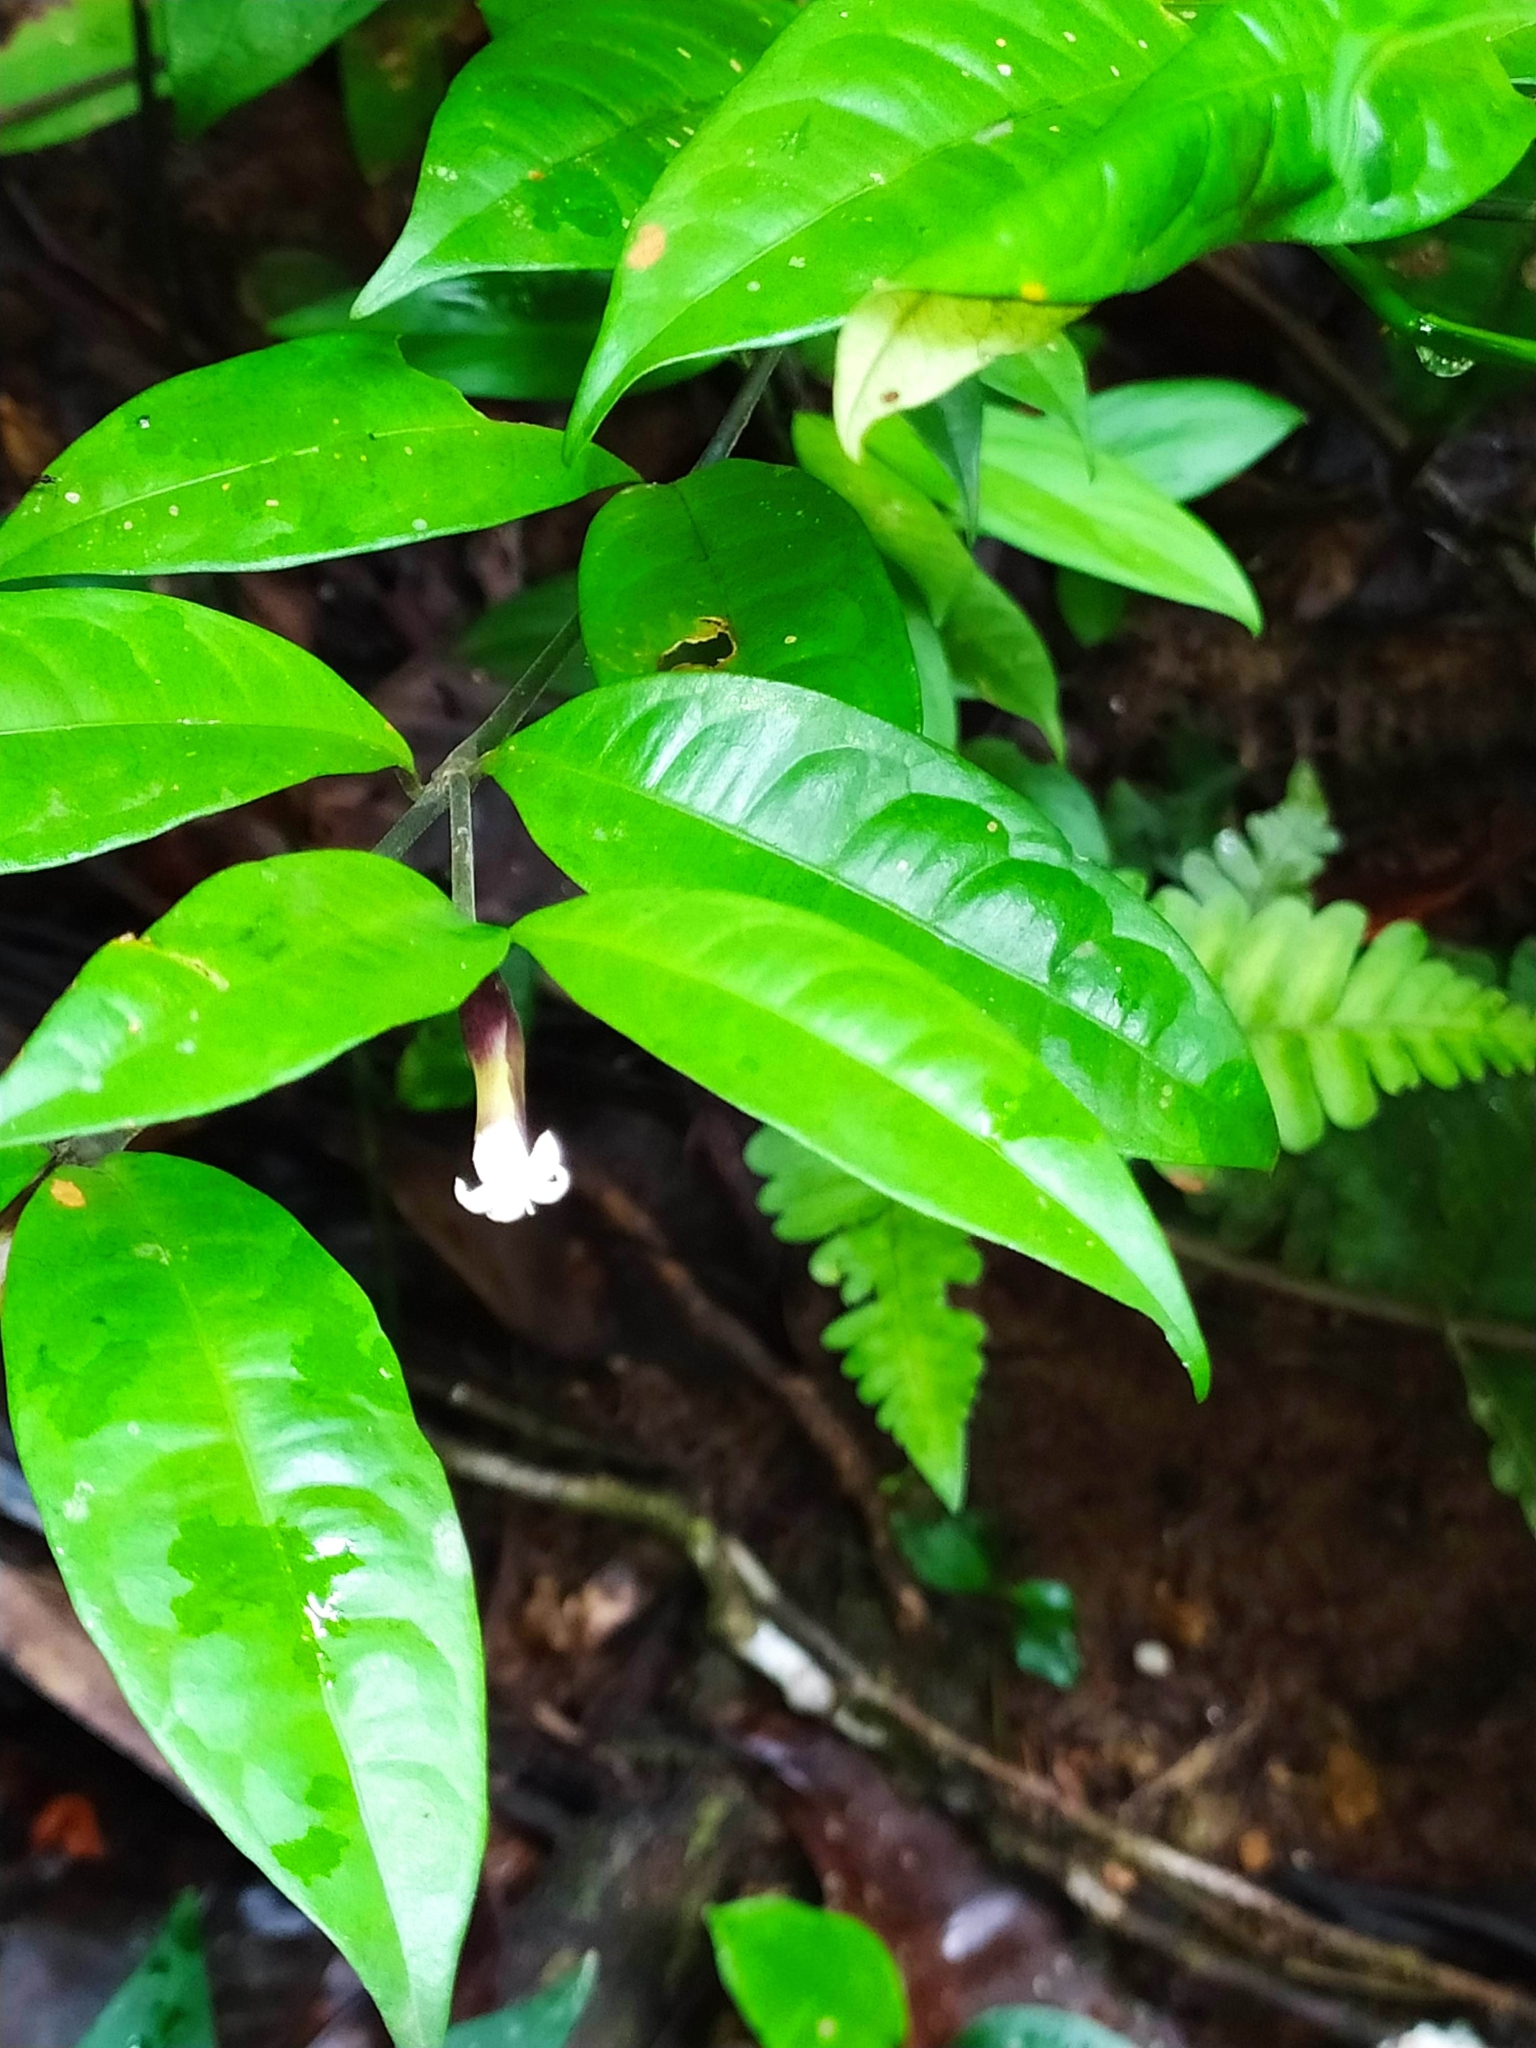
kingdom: Plantae
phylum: Tracheophyta
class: Magnoliopsida
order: Gentianales
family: Rubiaceae
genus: Palicourea
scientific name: Palicourea oblonga
